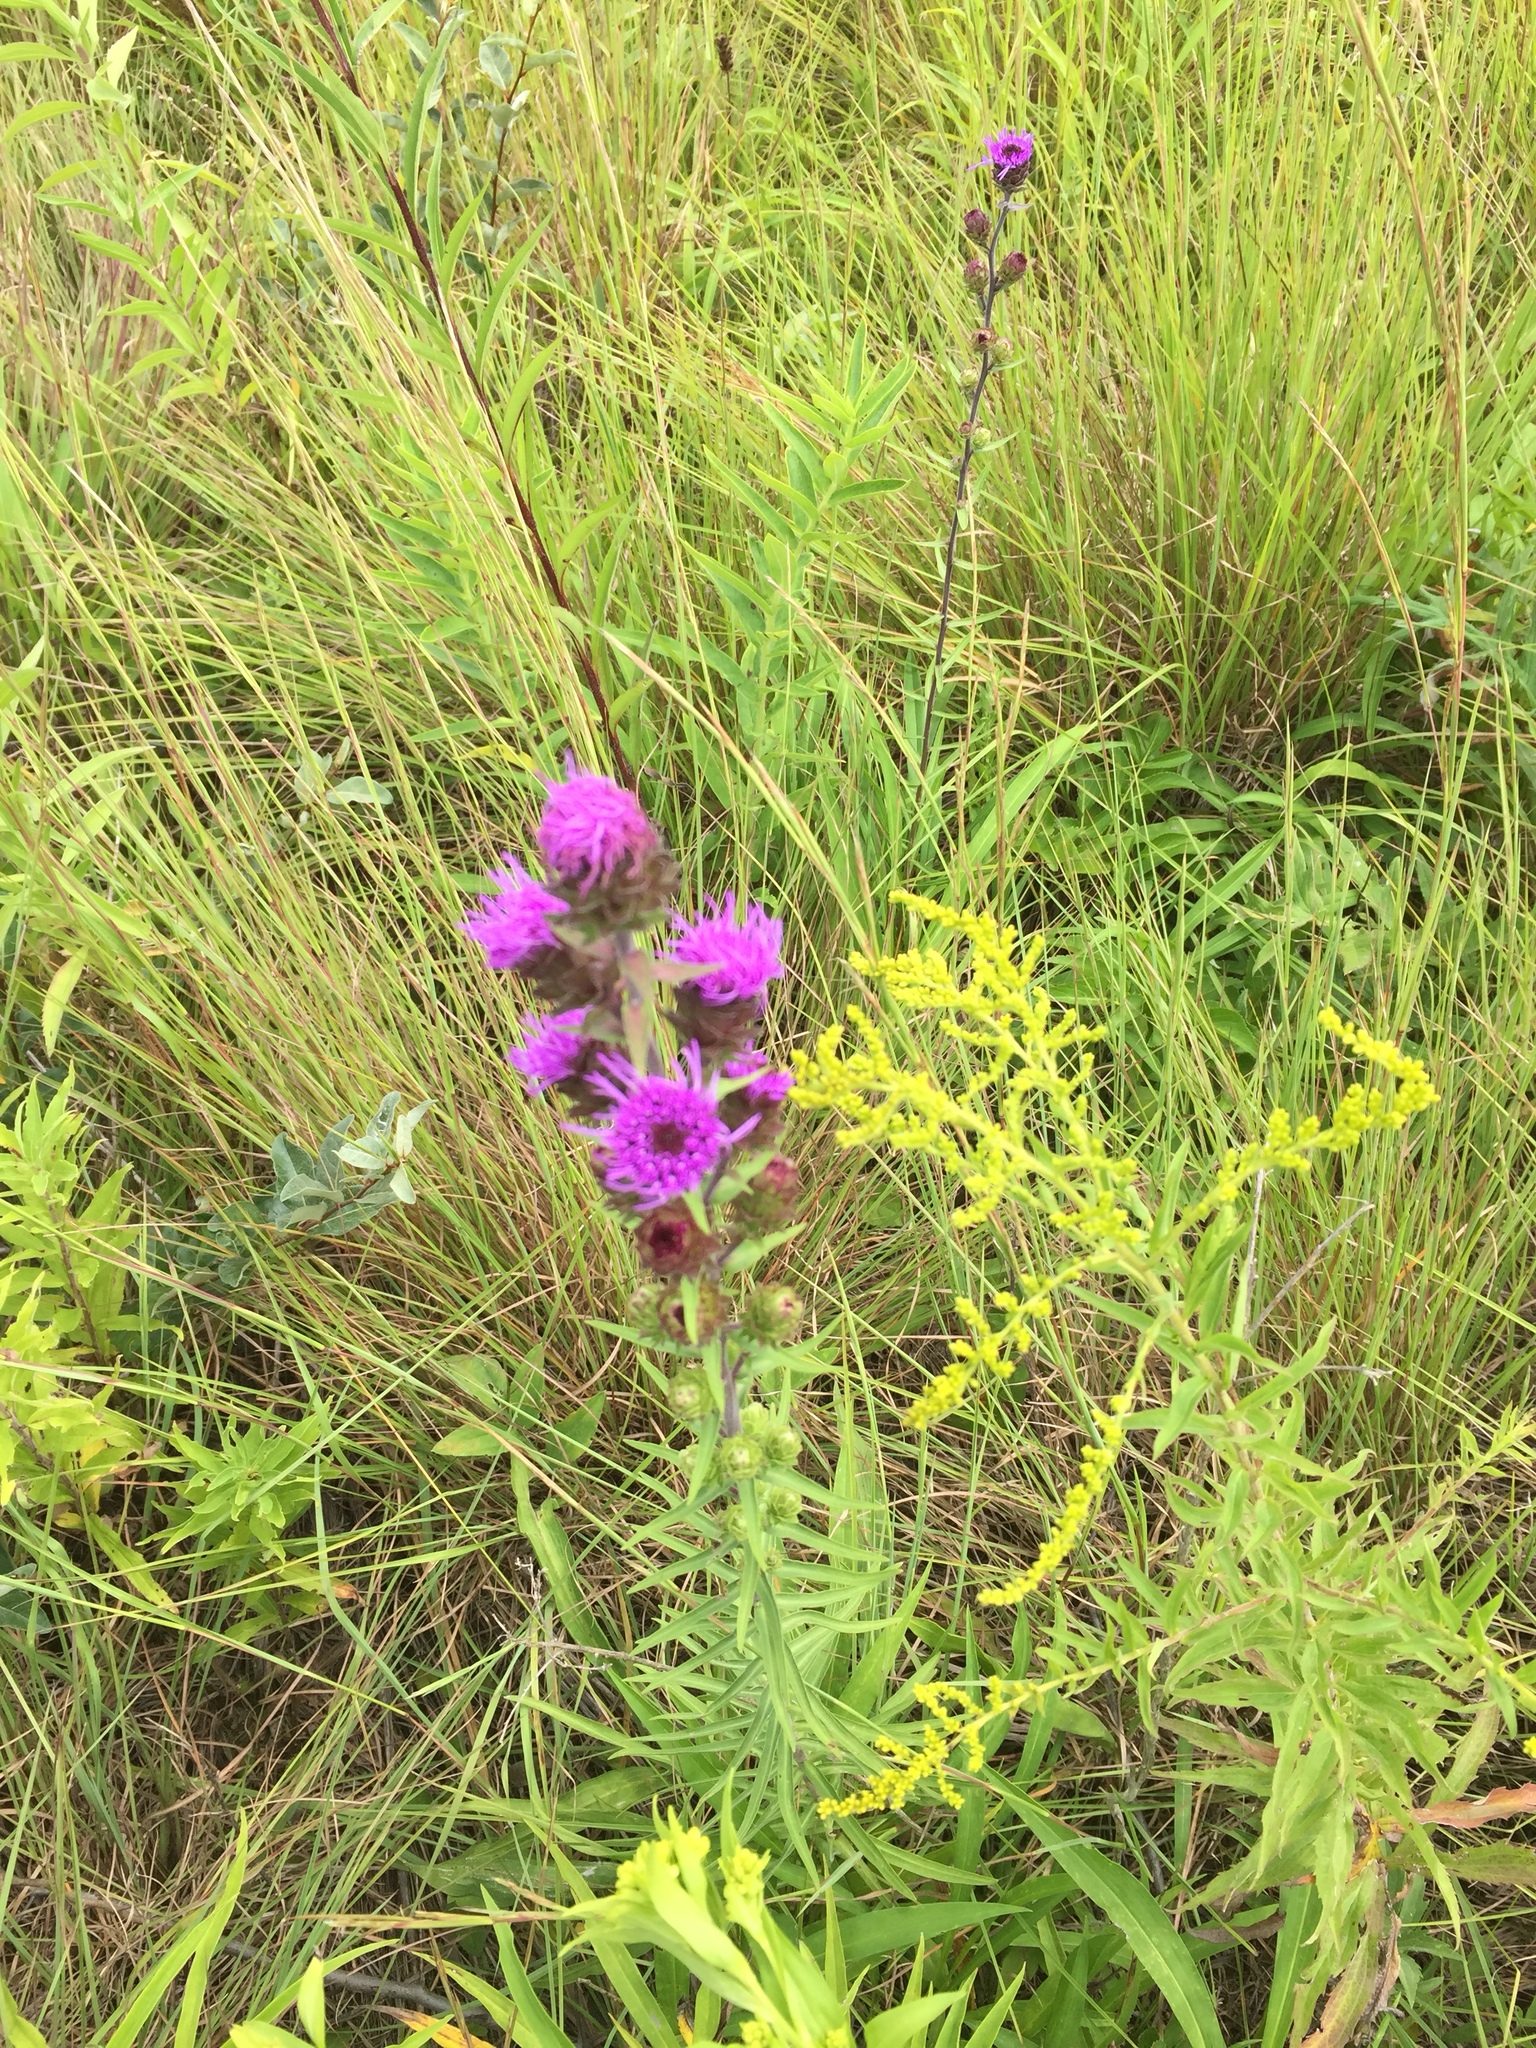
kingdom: Plantae
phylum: Tracheophyta
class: Magnoliopsida
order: Asterales
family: Asteraceae
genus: Liatris
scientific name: Liatris aspera
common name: Lacerate blazing-star
